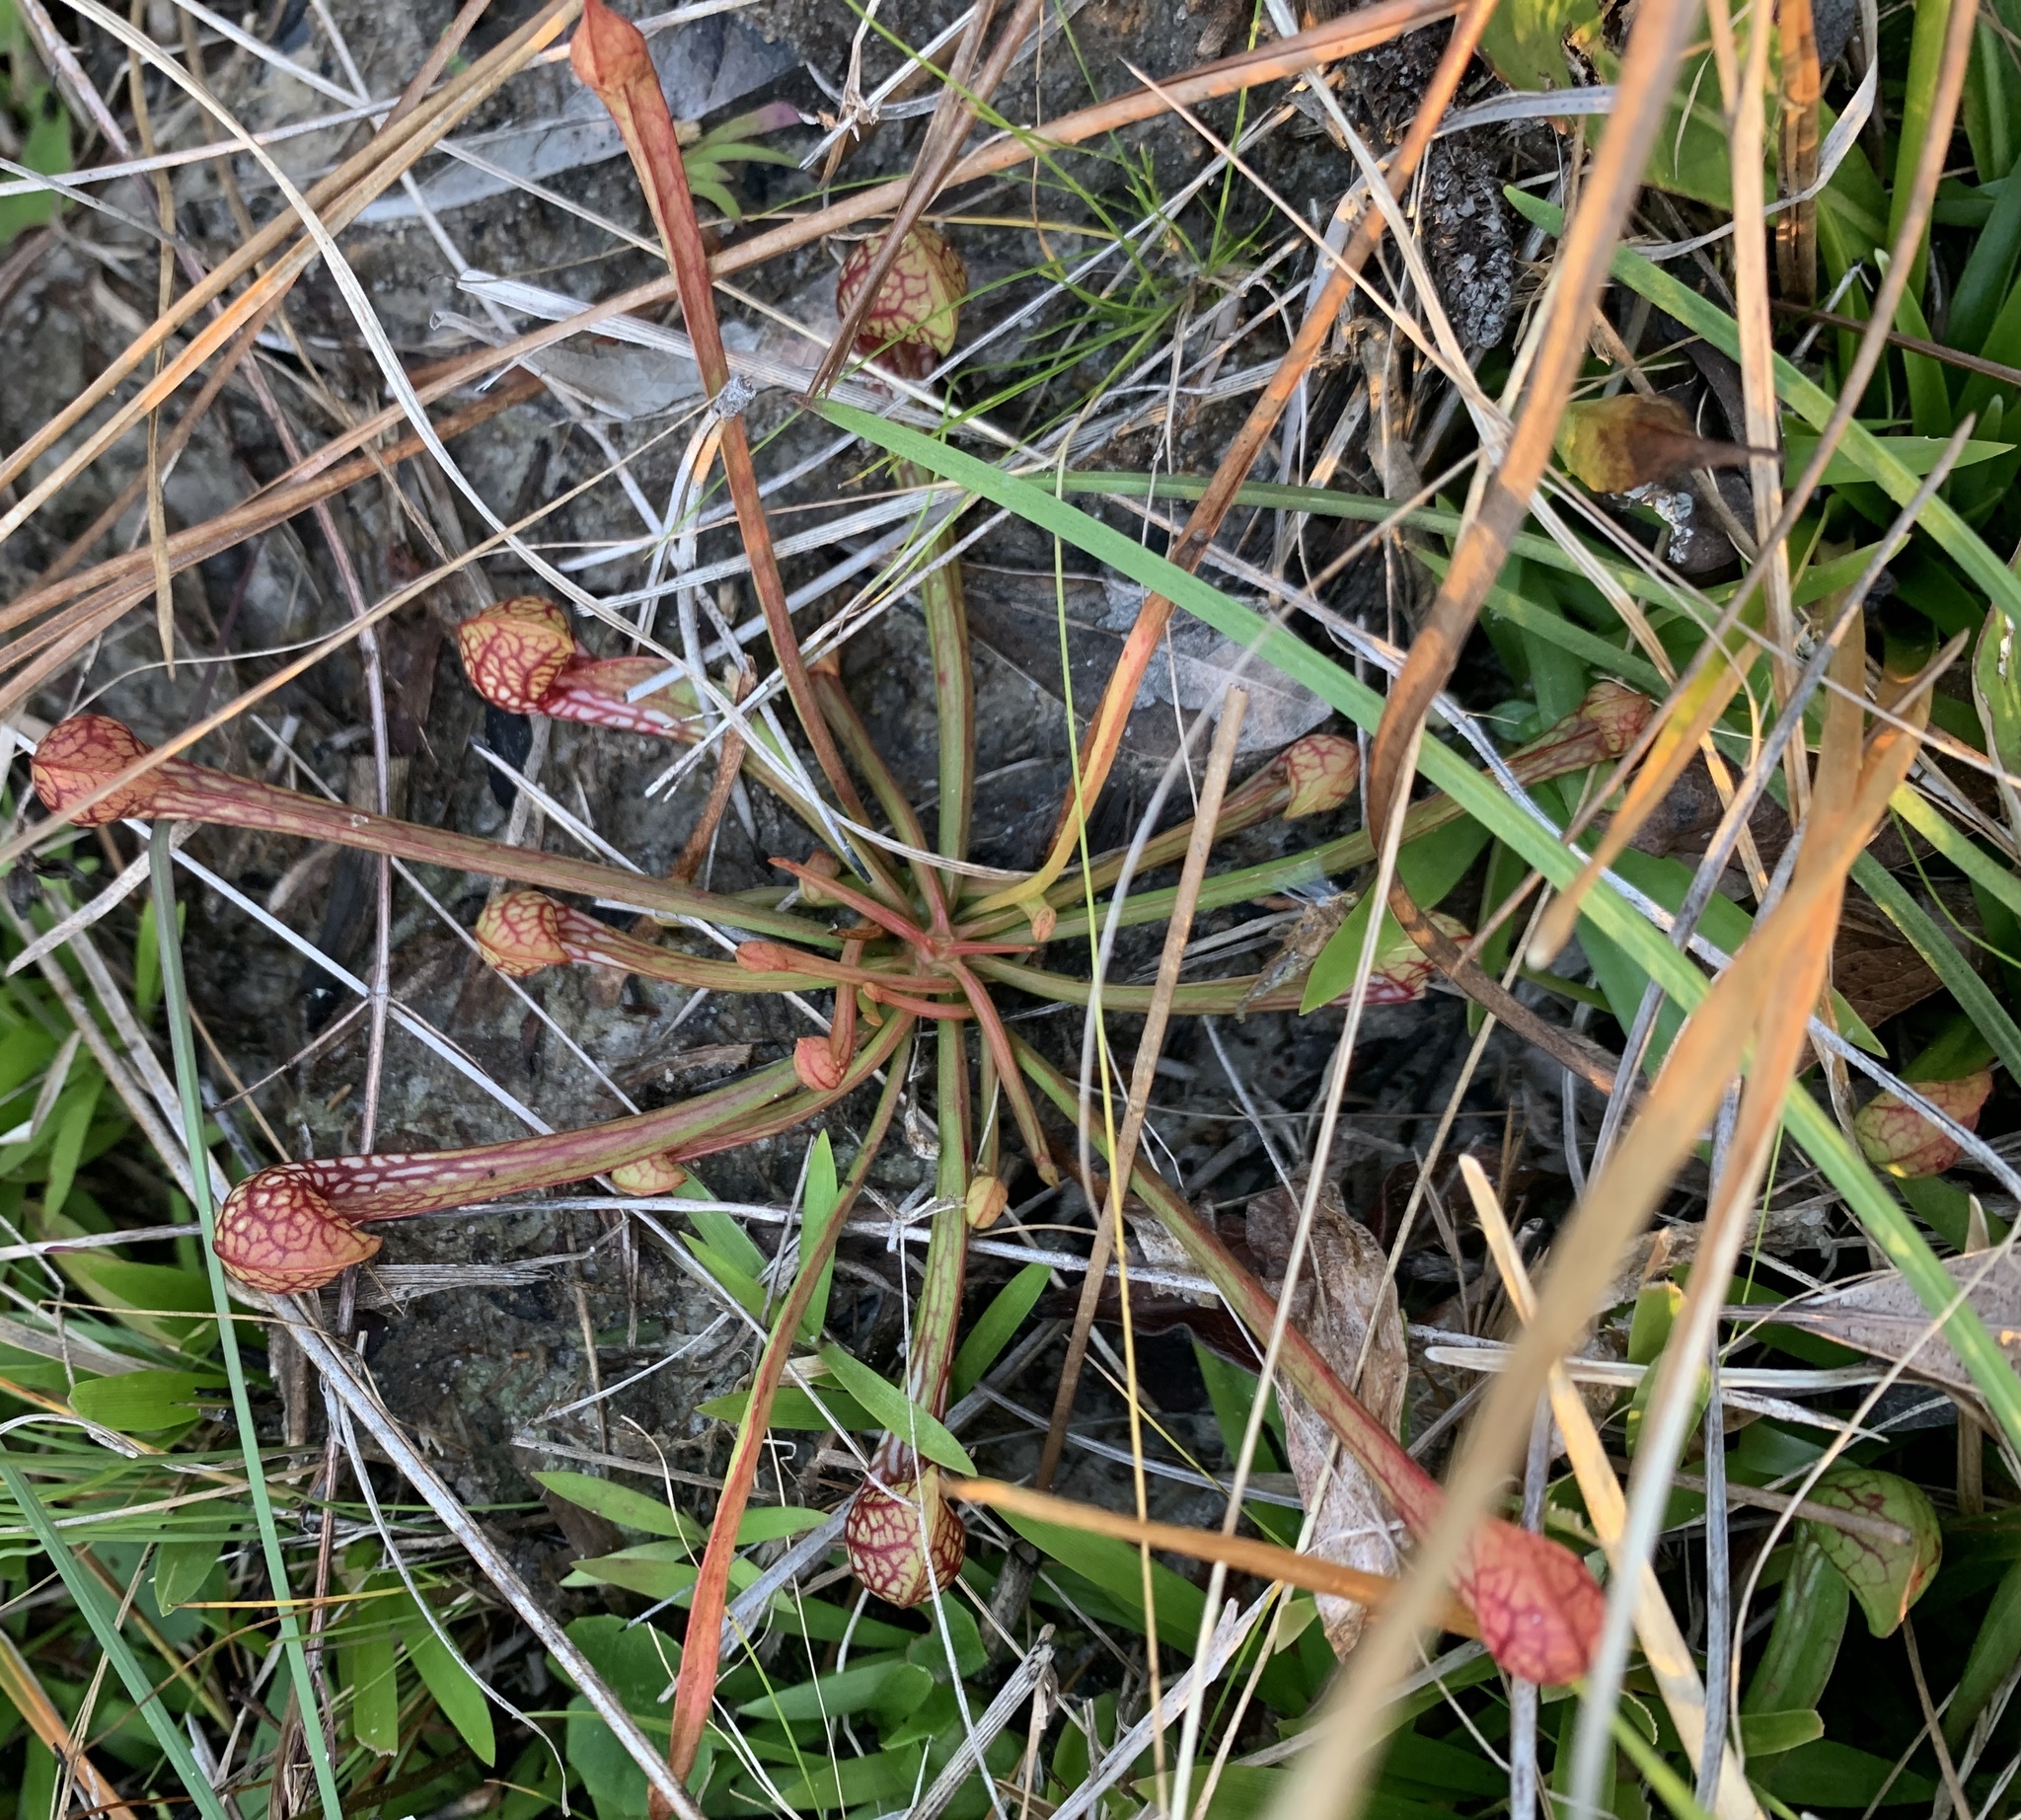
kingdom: Plantae
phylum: Tracheophyta
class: Magnoliopsida
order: Ericales
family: Sarraceniaceae
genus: Sarracenia
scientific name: Sarracenia psittacina
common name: Parrot pitcherplant
